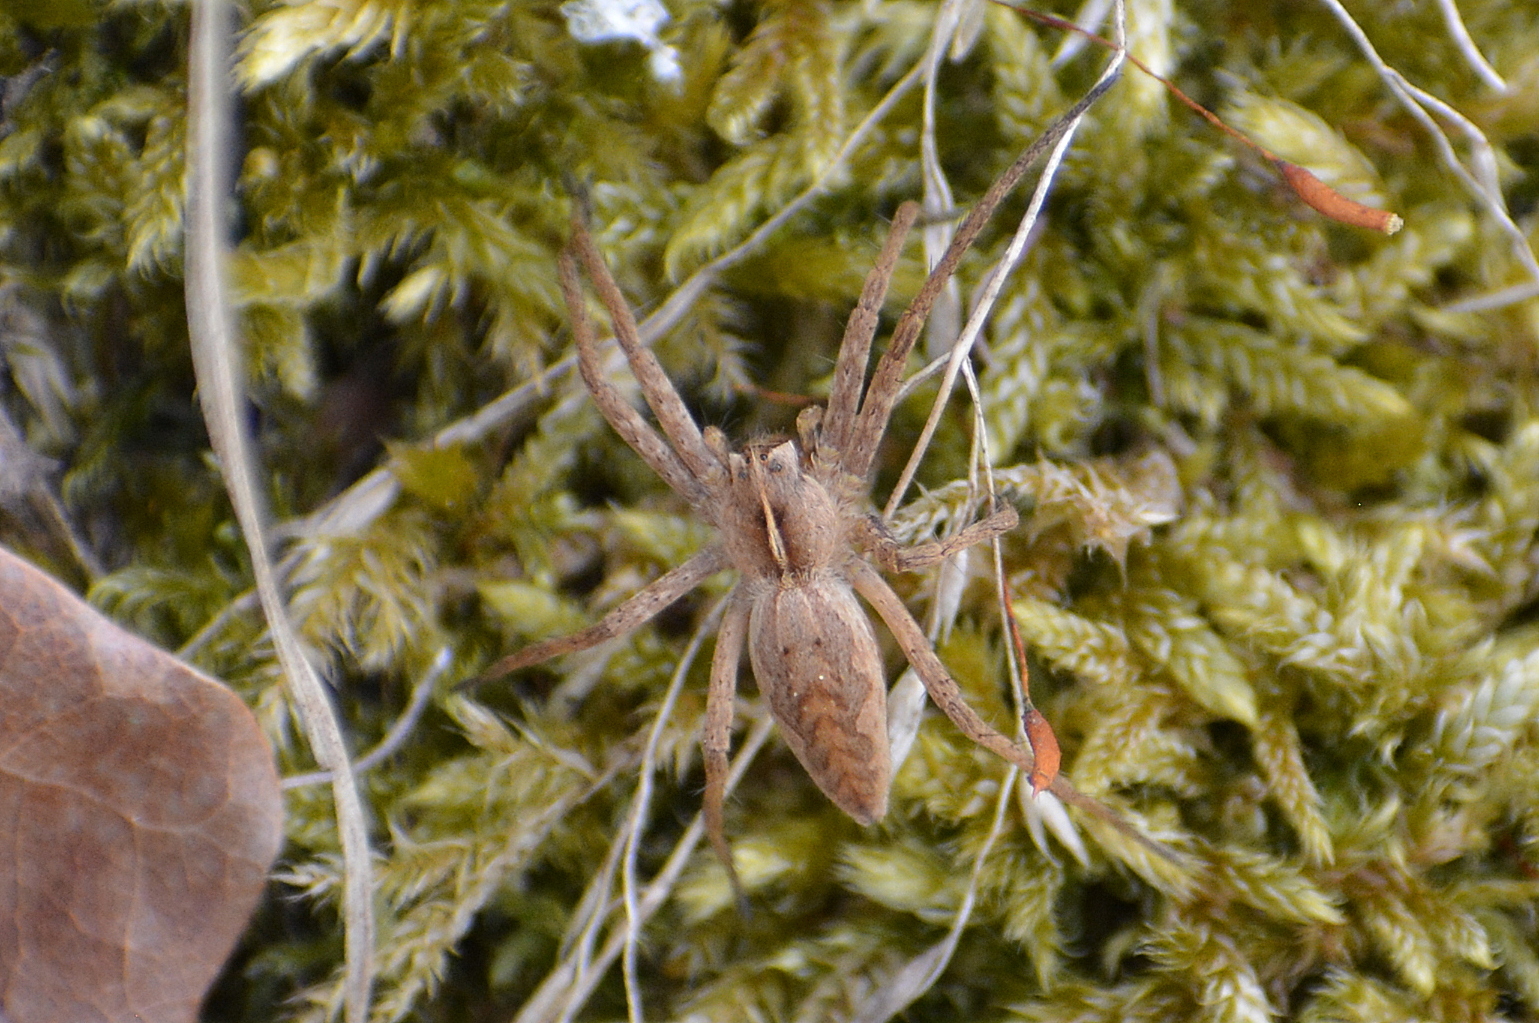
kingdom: Animalia
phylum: Arthropoda
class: Arachnida
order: Araneae
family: Pisauridae
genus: Pisaura
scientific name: Pisaura mirabilis
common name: Tent spider
